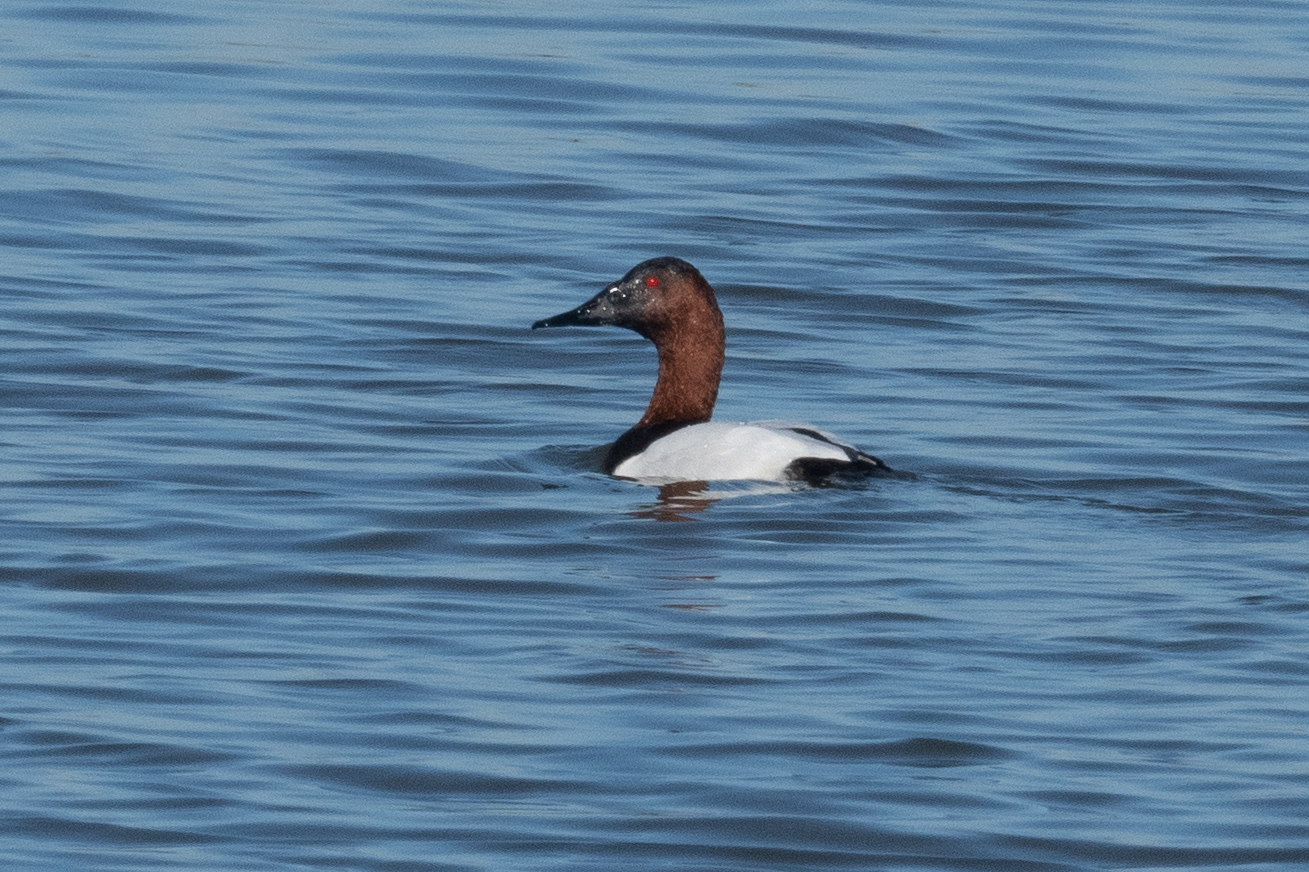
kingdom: Animalia
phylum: Chordata
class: Aves
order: Anseriformes
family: Anatidae
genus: Aythya
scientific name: Aythya valisineria
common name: Canvasback
